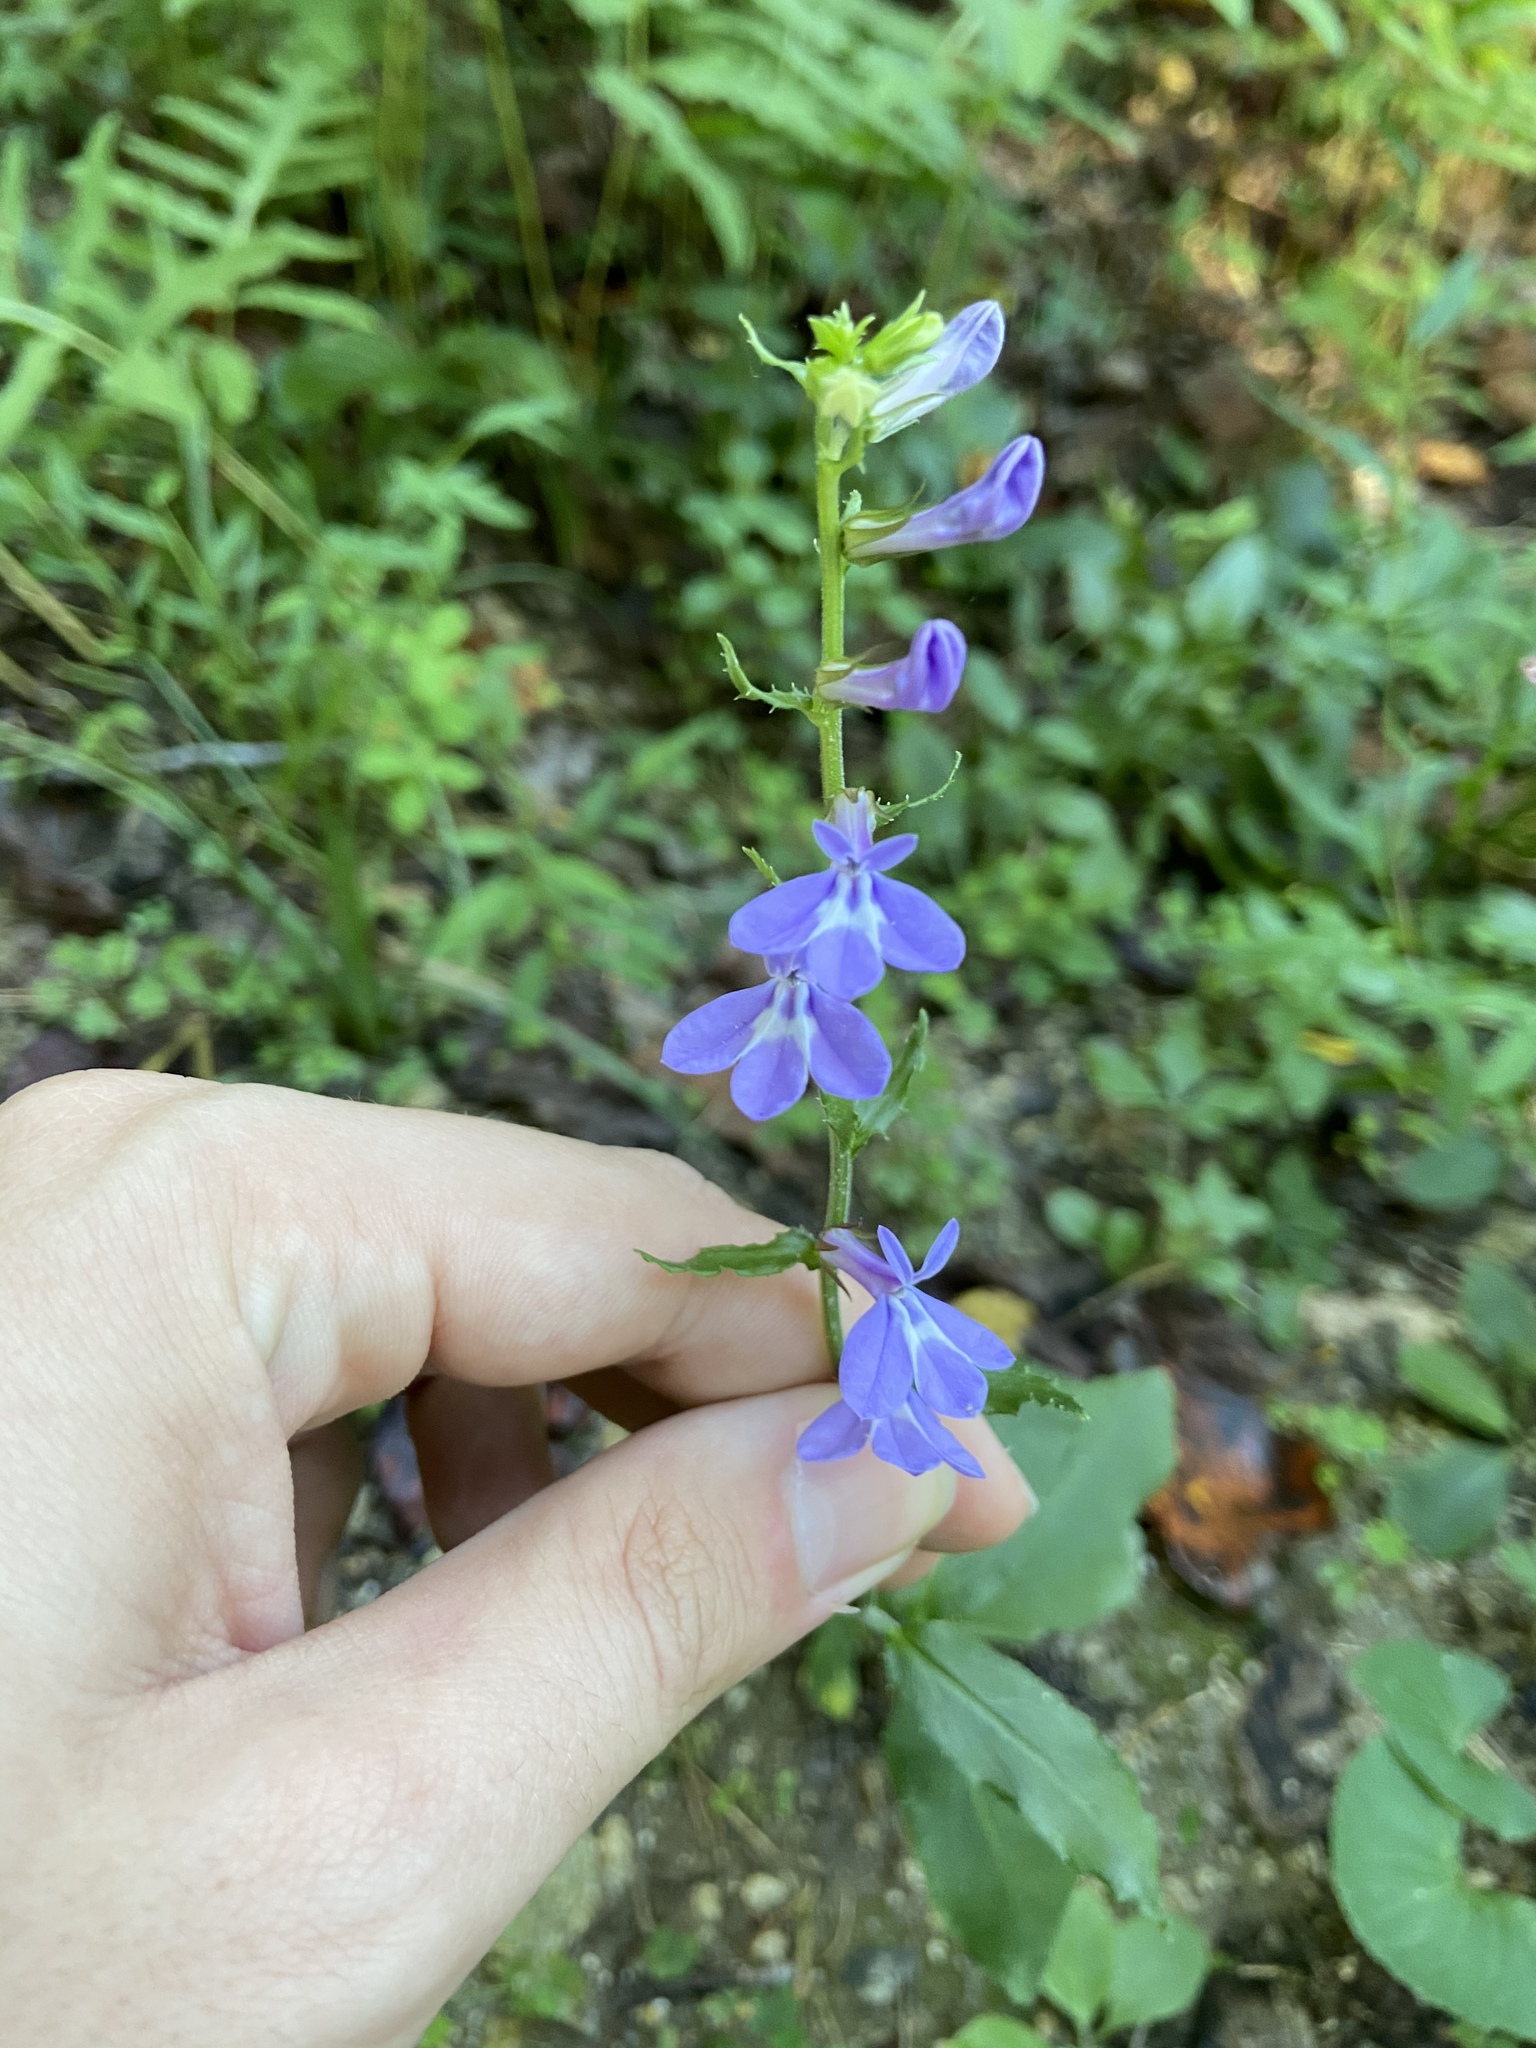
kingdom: Plantae
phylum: Tracheophyta
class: Magnoliopsida
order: Asterales
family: Campanulaceae
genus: Lobelia
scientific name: Lobelia puberula
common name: Purple dewdrop
